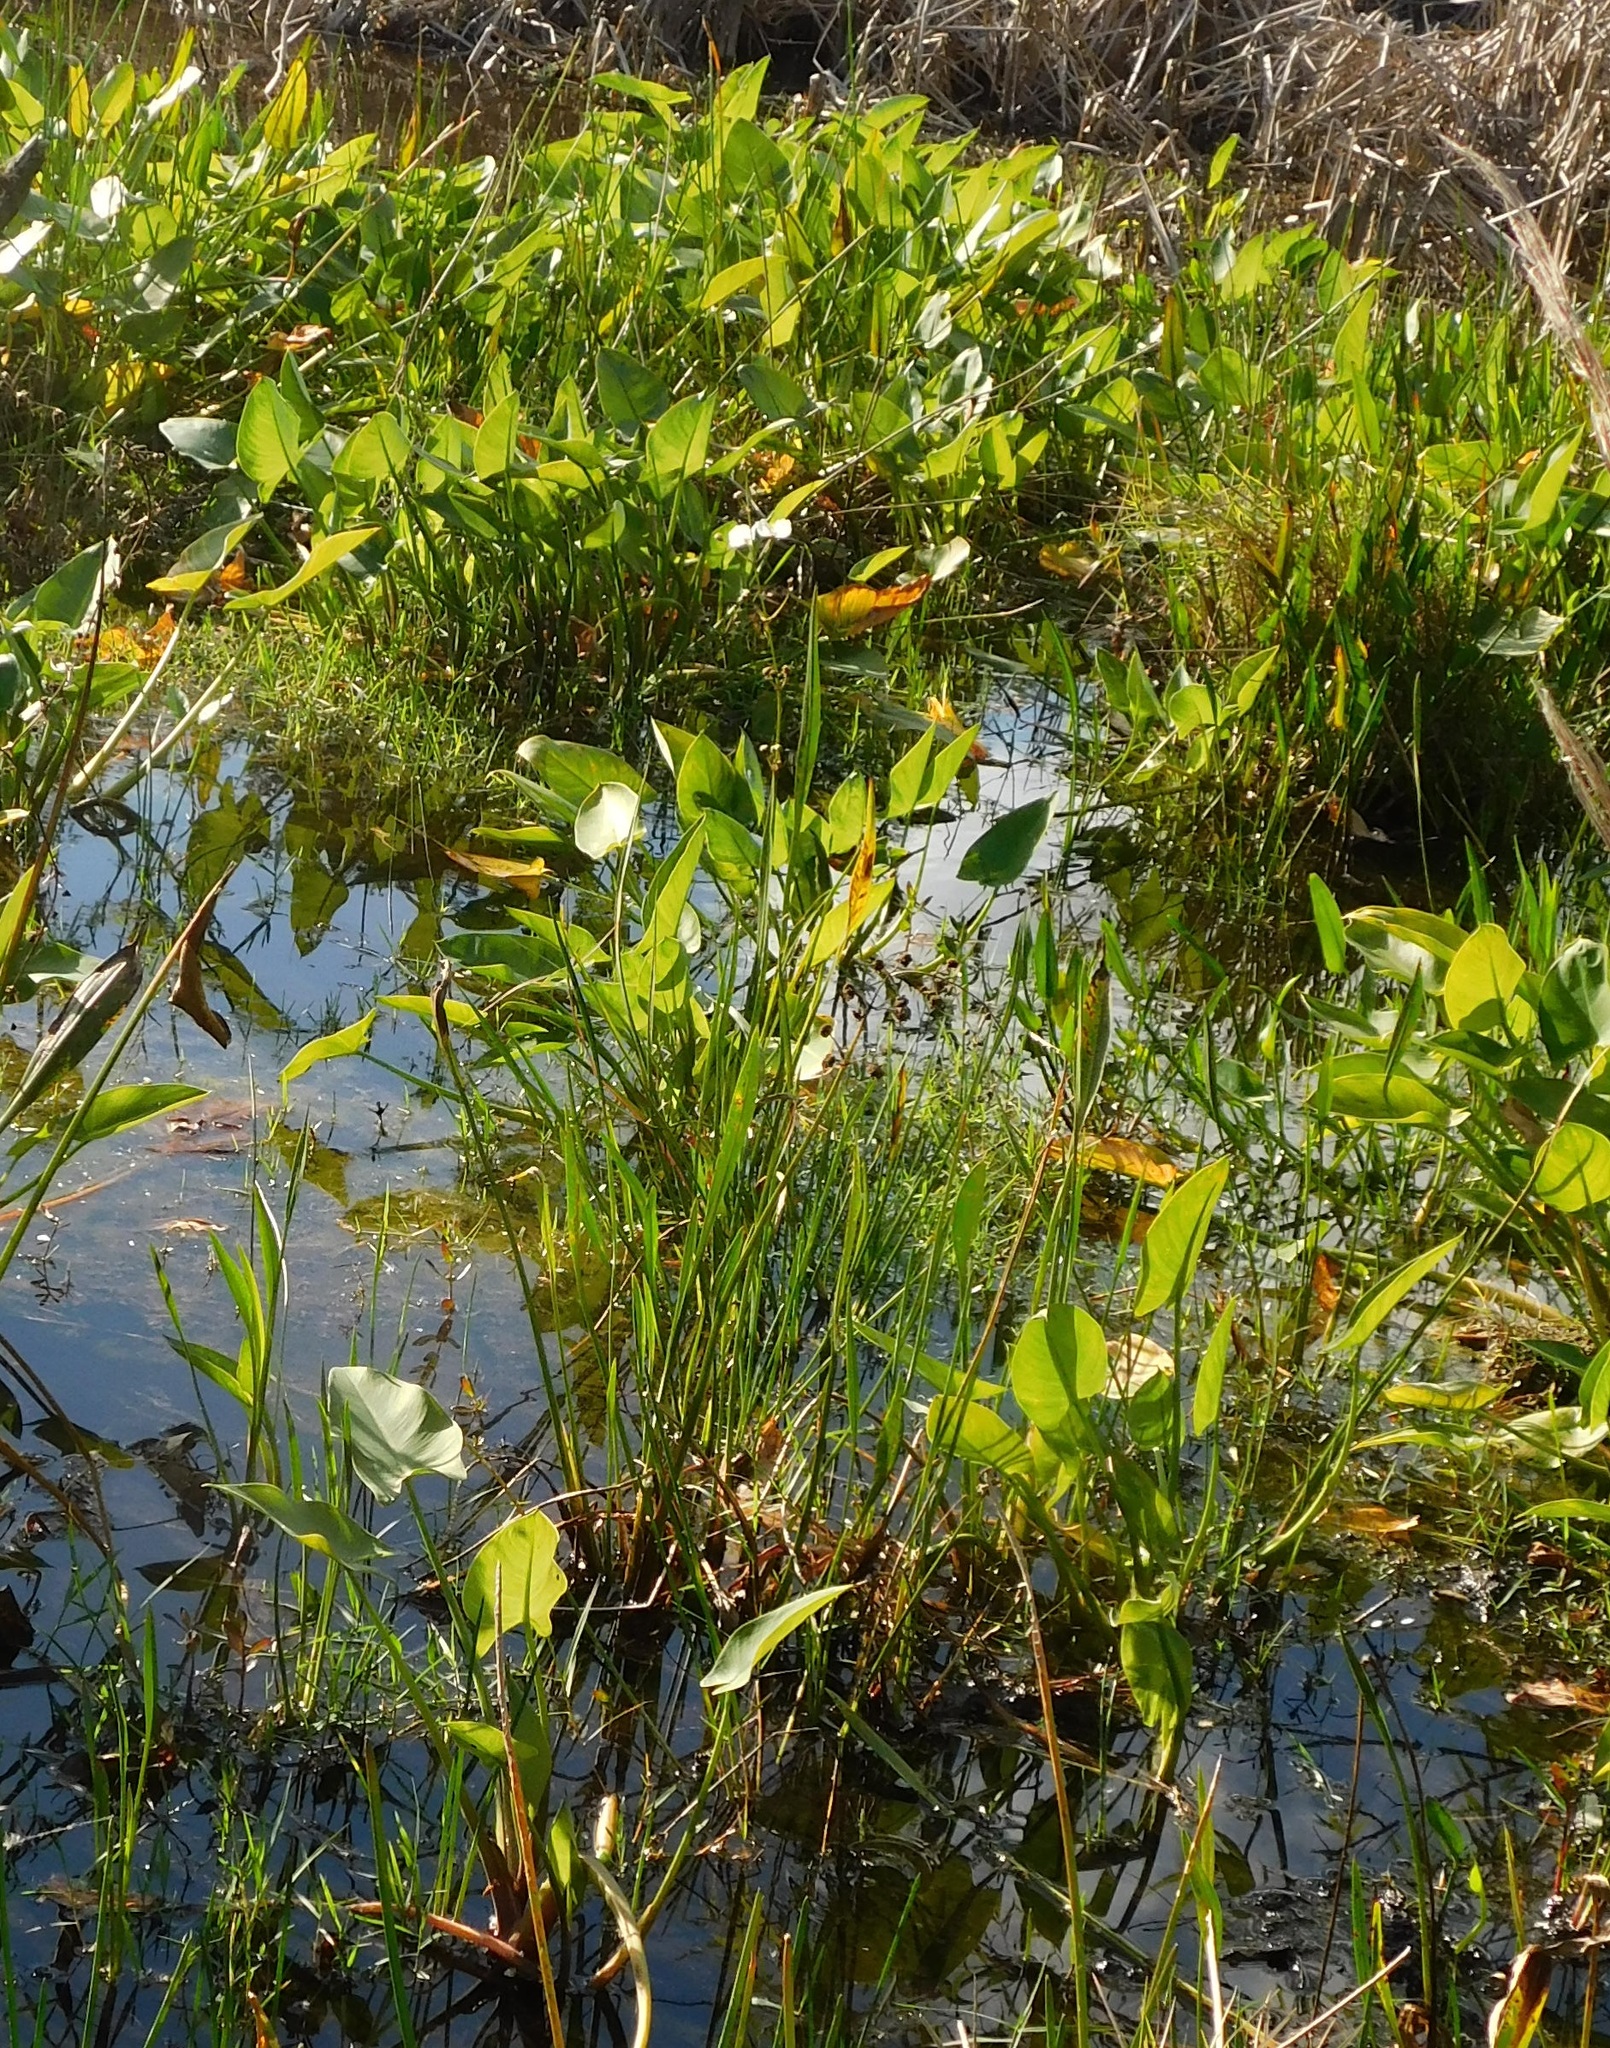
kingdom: Plantae
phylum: Tracheophyta
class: Liliopsida
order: Alismatales
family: Alismataceae
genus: Sagittaria
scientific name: Sagittaria lancifolia
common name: Lance-leaf arrowhead
